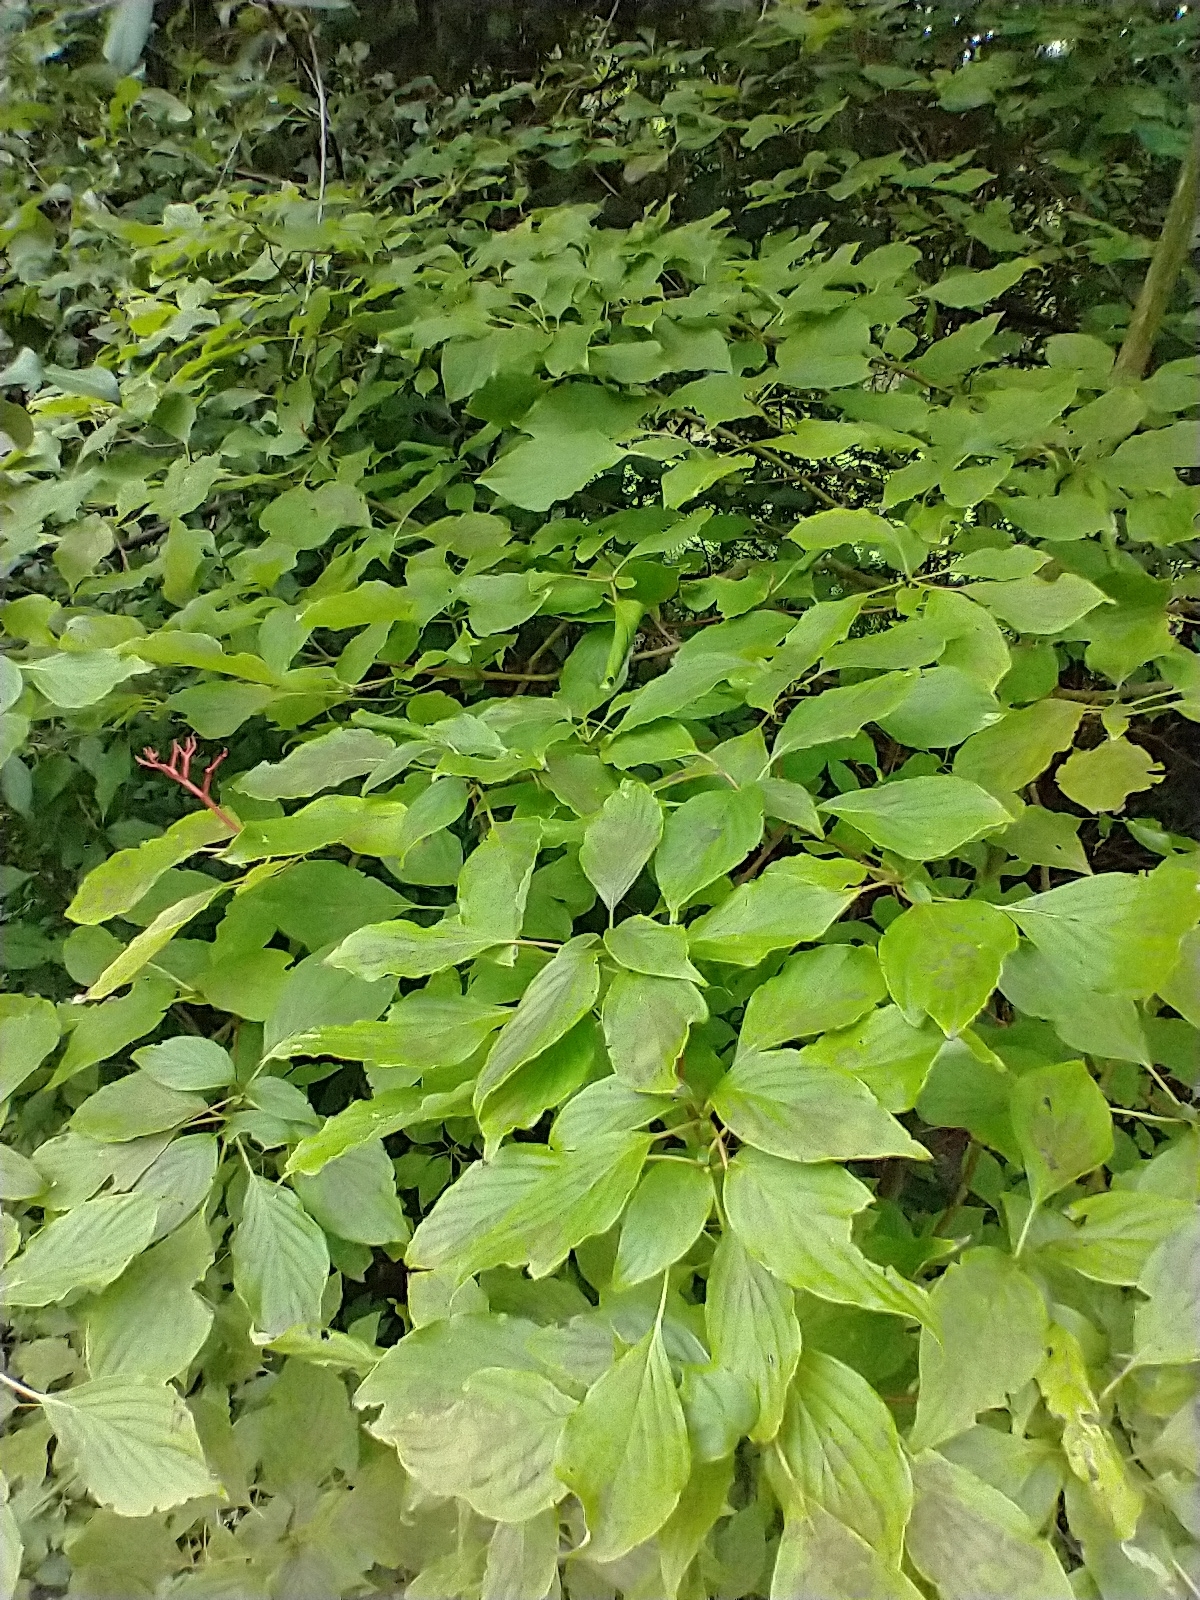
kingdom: Plantae
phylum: Tracheophyta
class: Magnoliopsida
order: Cornales
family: Cornaceae
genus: Cornus
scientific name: Cornus alternifolia
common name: Pagoda dogwood
